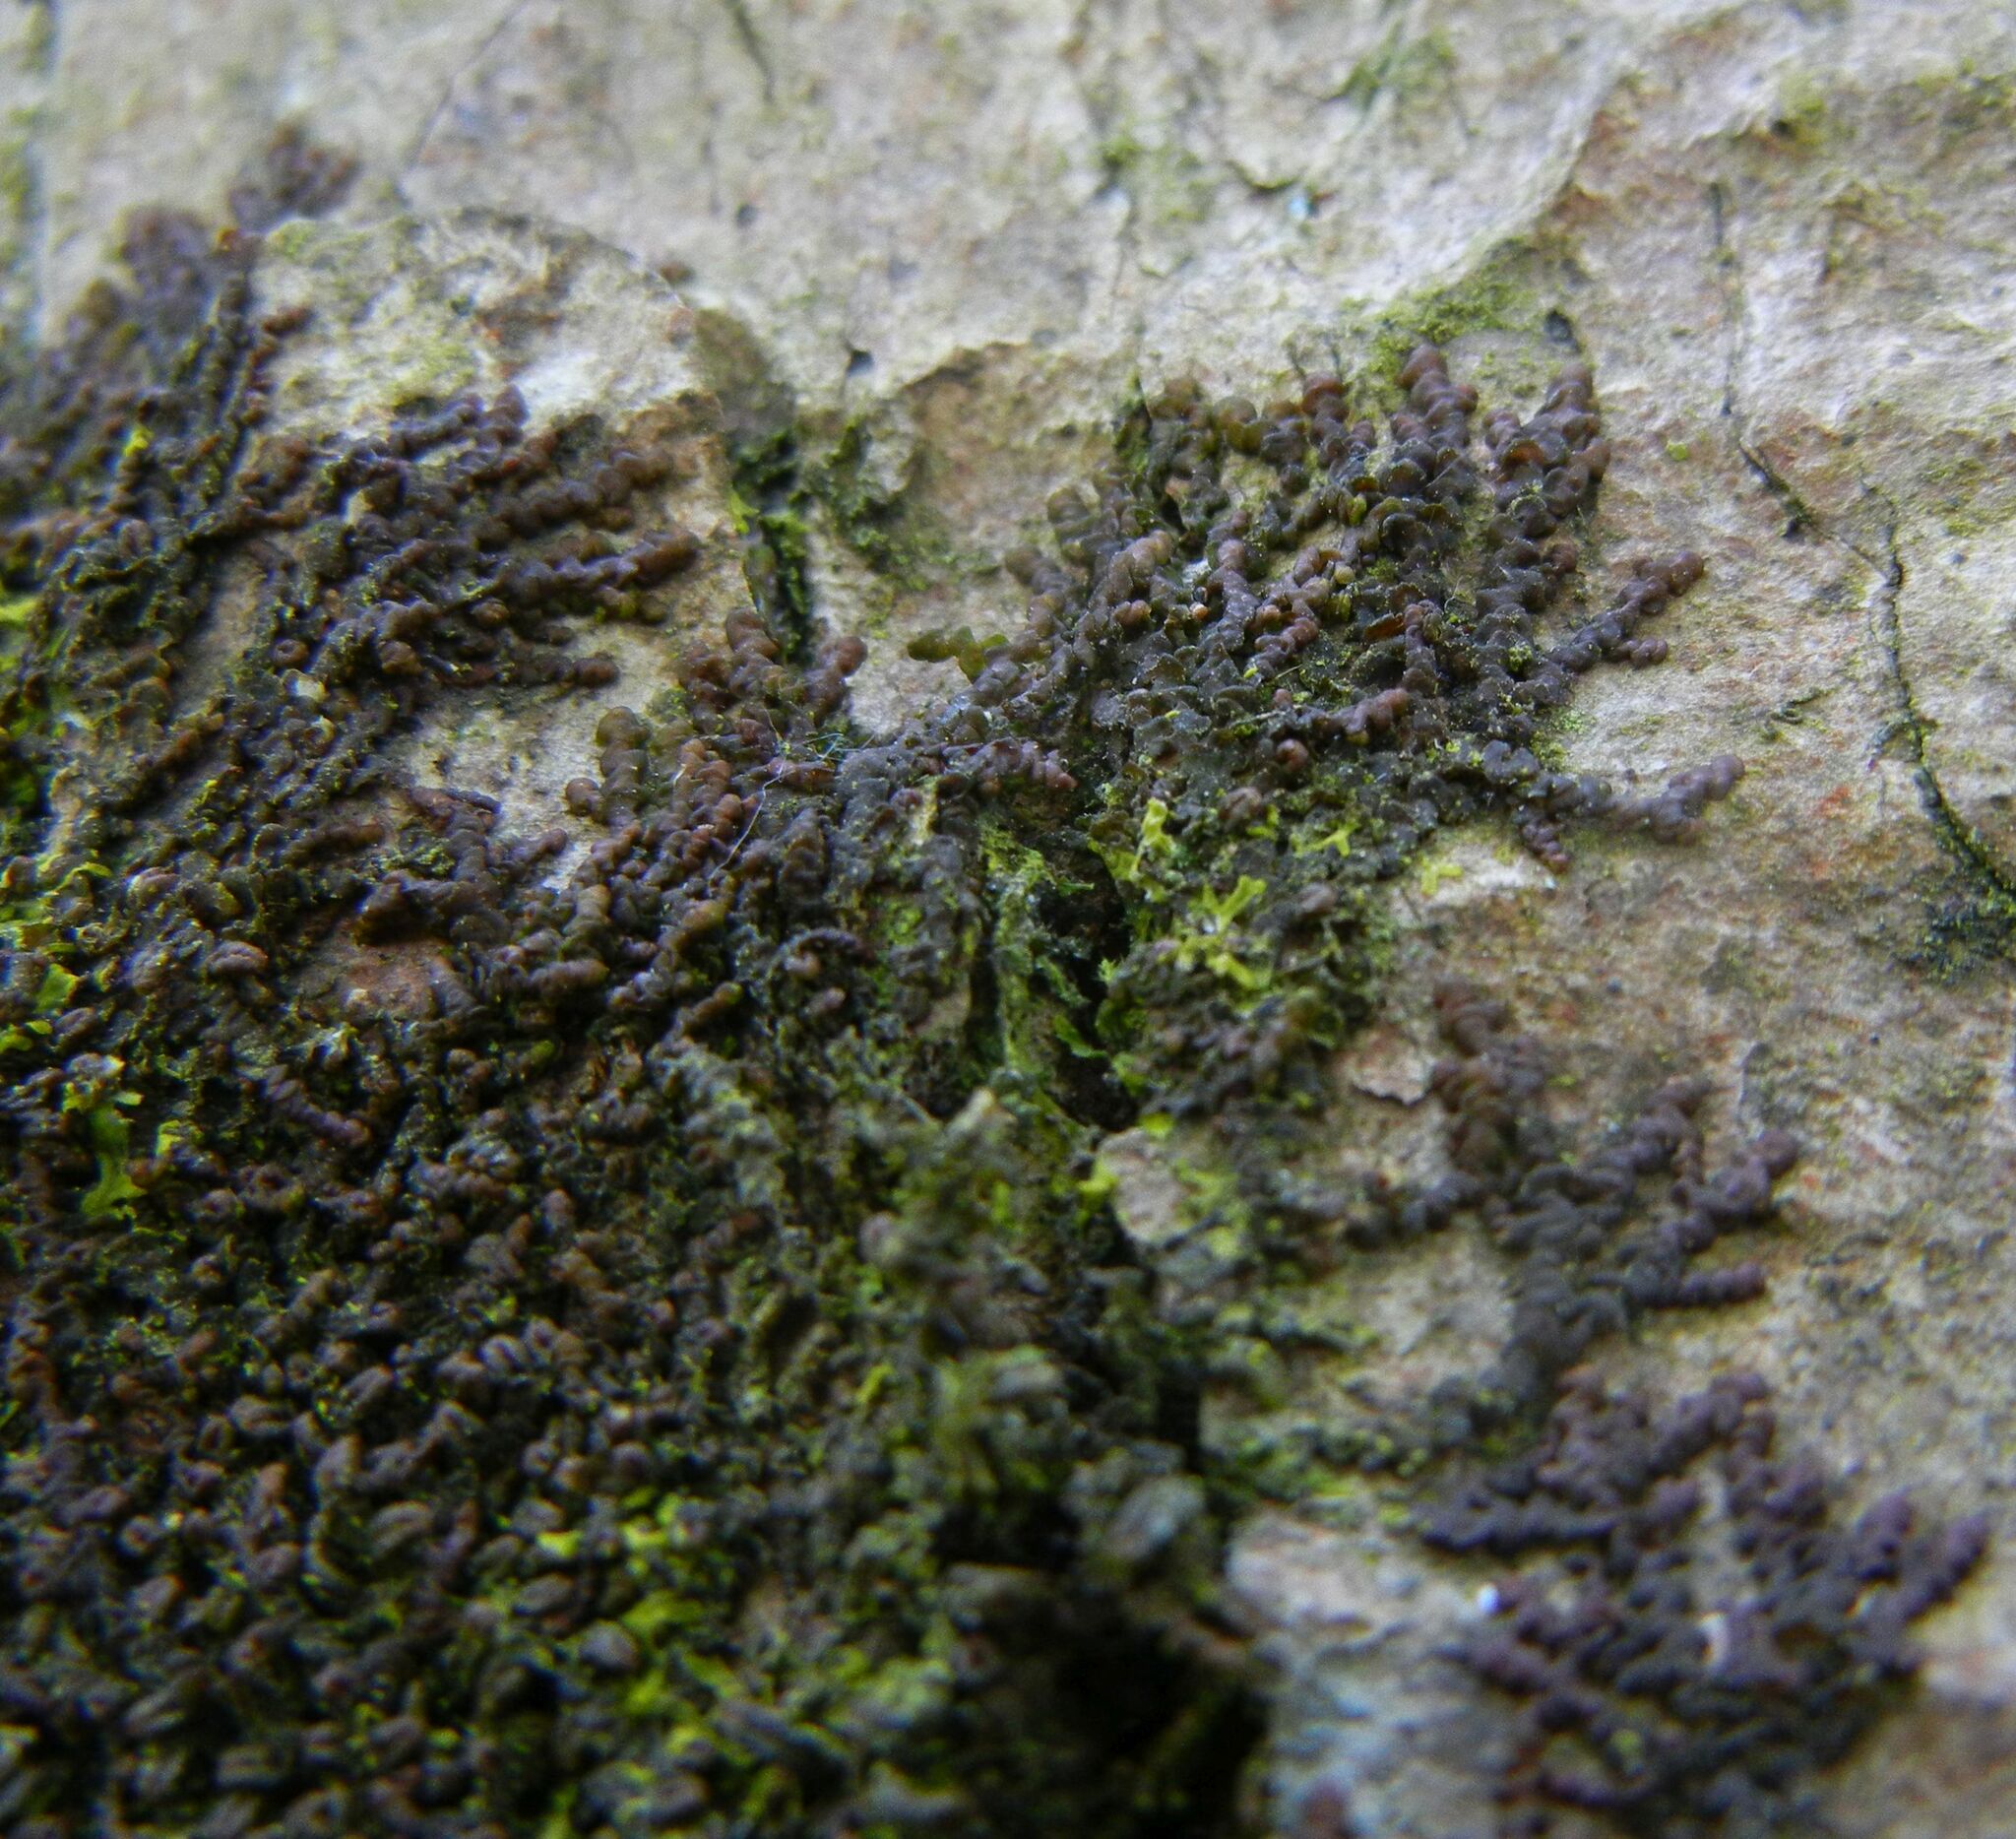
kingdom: Plantae
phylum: Marchantiophyta
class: Jungermanniopsida
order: Porellales
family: Frullaniaceae
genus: Frullania
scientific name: Frullania dilatata
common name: Dilated scalewort
